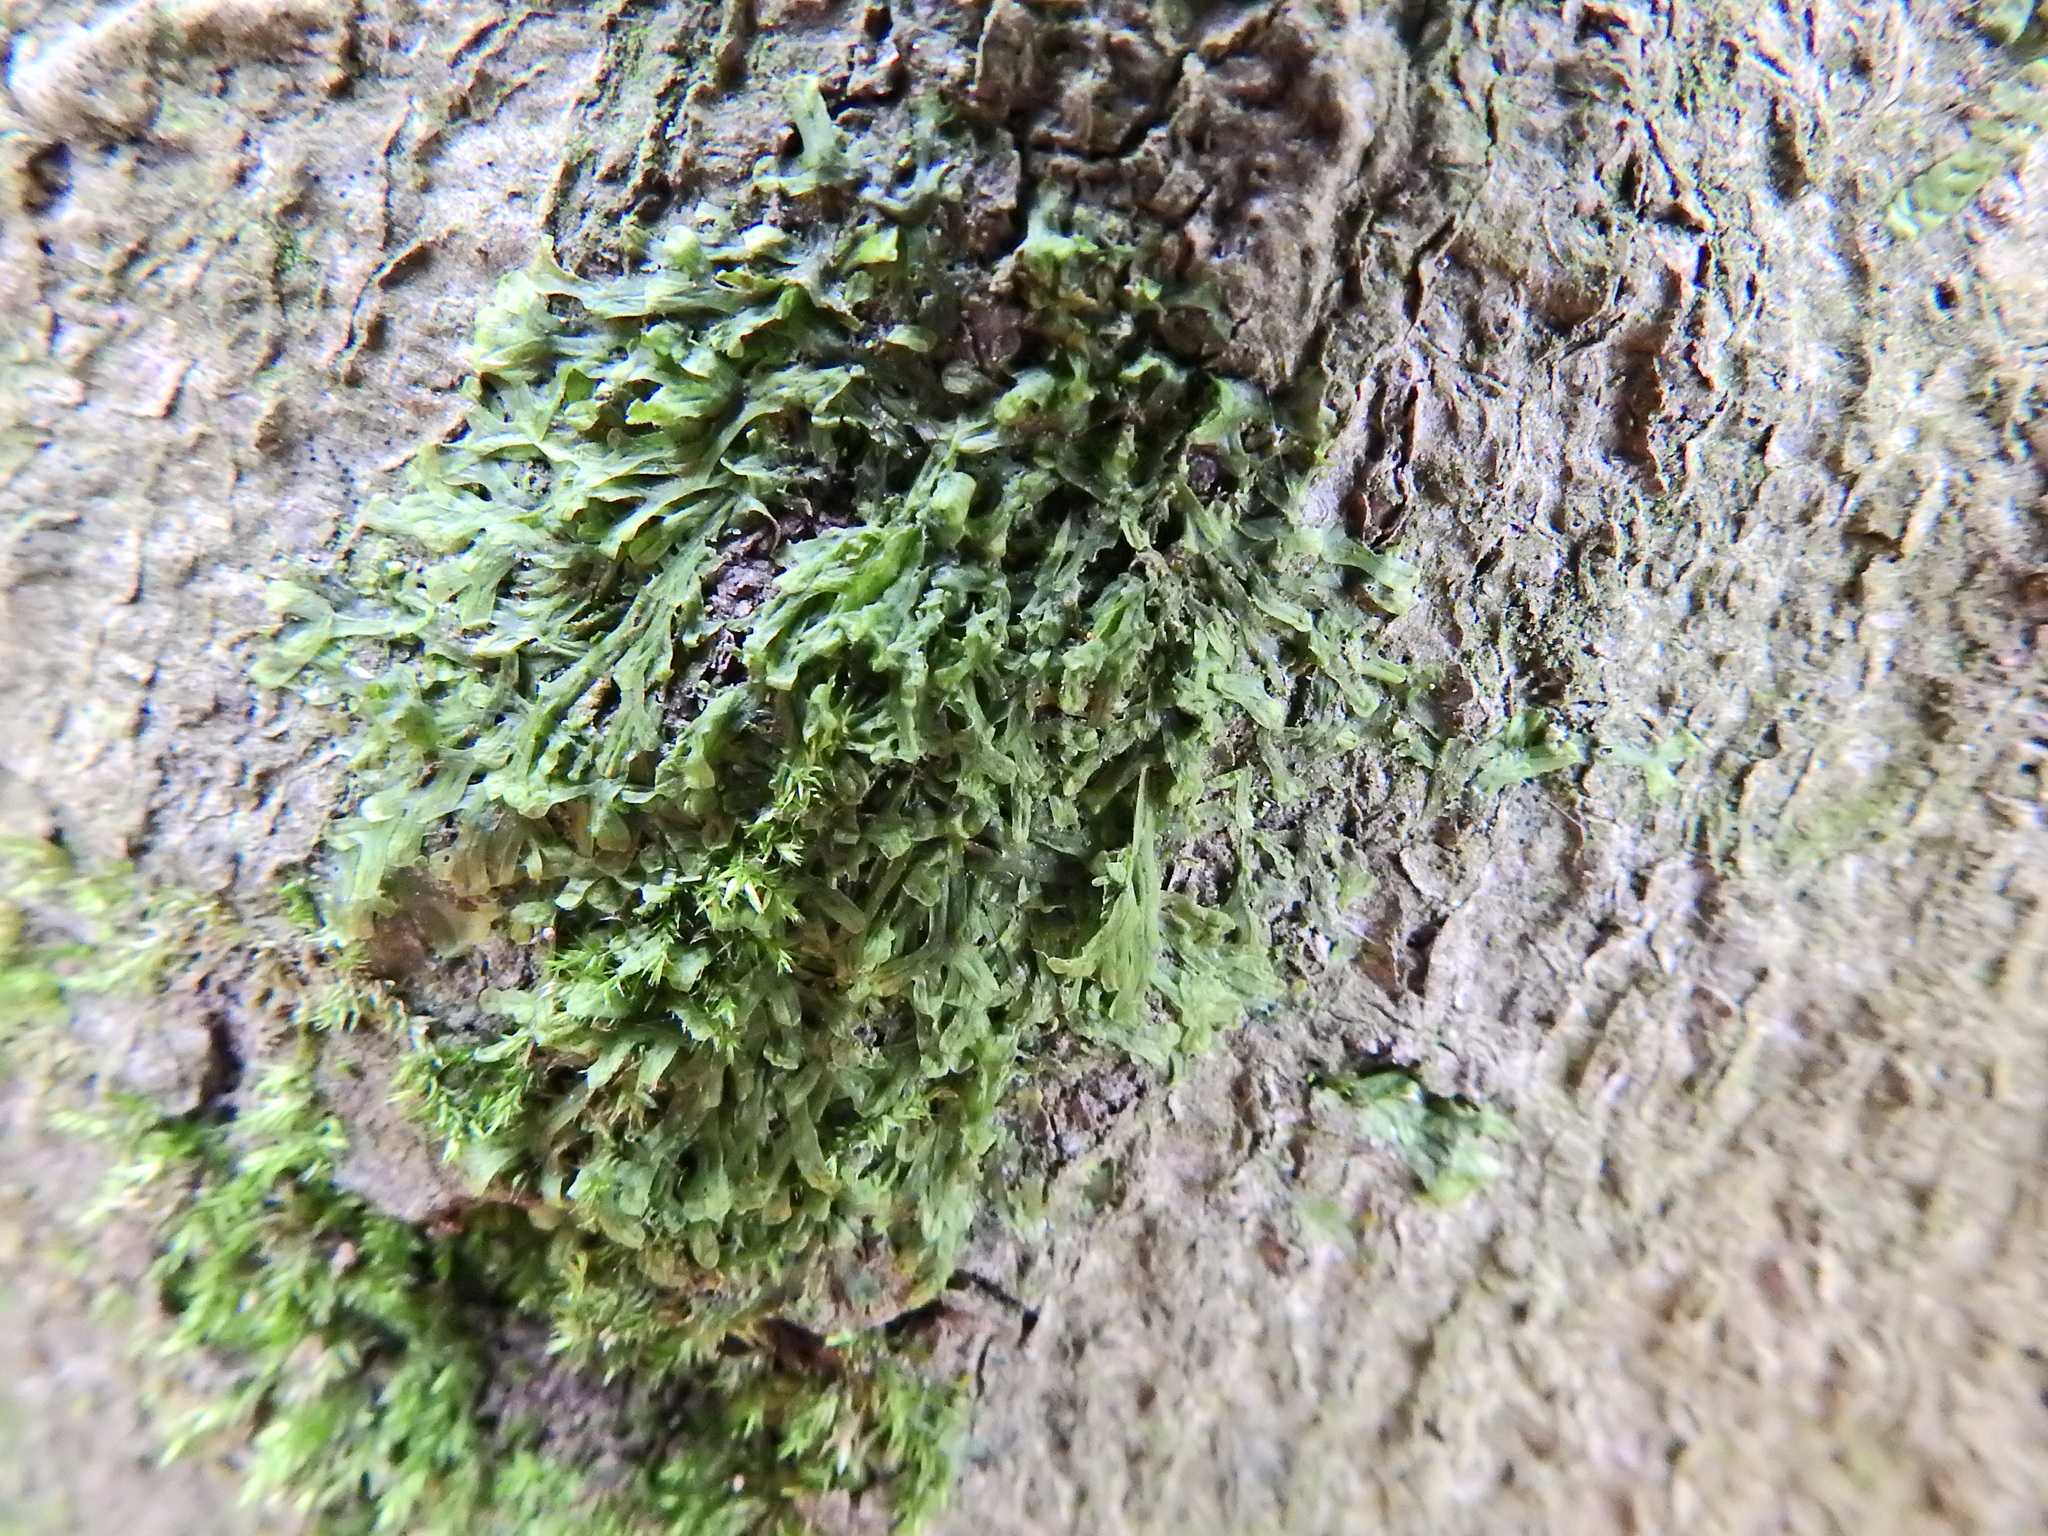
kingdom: Plantae
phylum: Marchantiophyta
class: Jungermanniopsida
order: Metzgeriales
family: Metzgeriaceae
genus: Metzgeria
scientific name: Metzgeria furcata
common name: Forked veilwort
